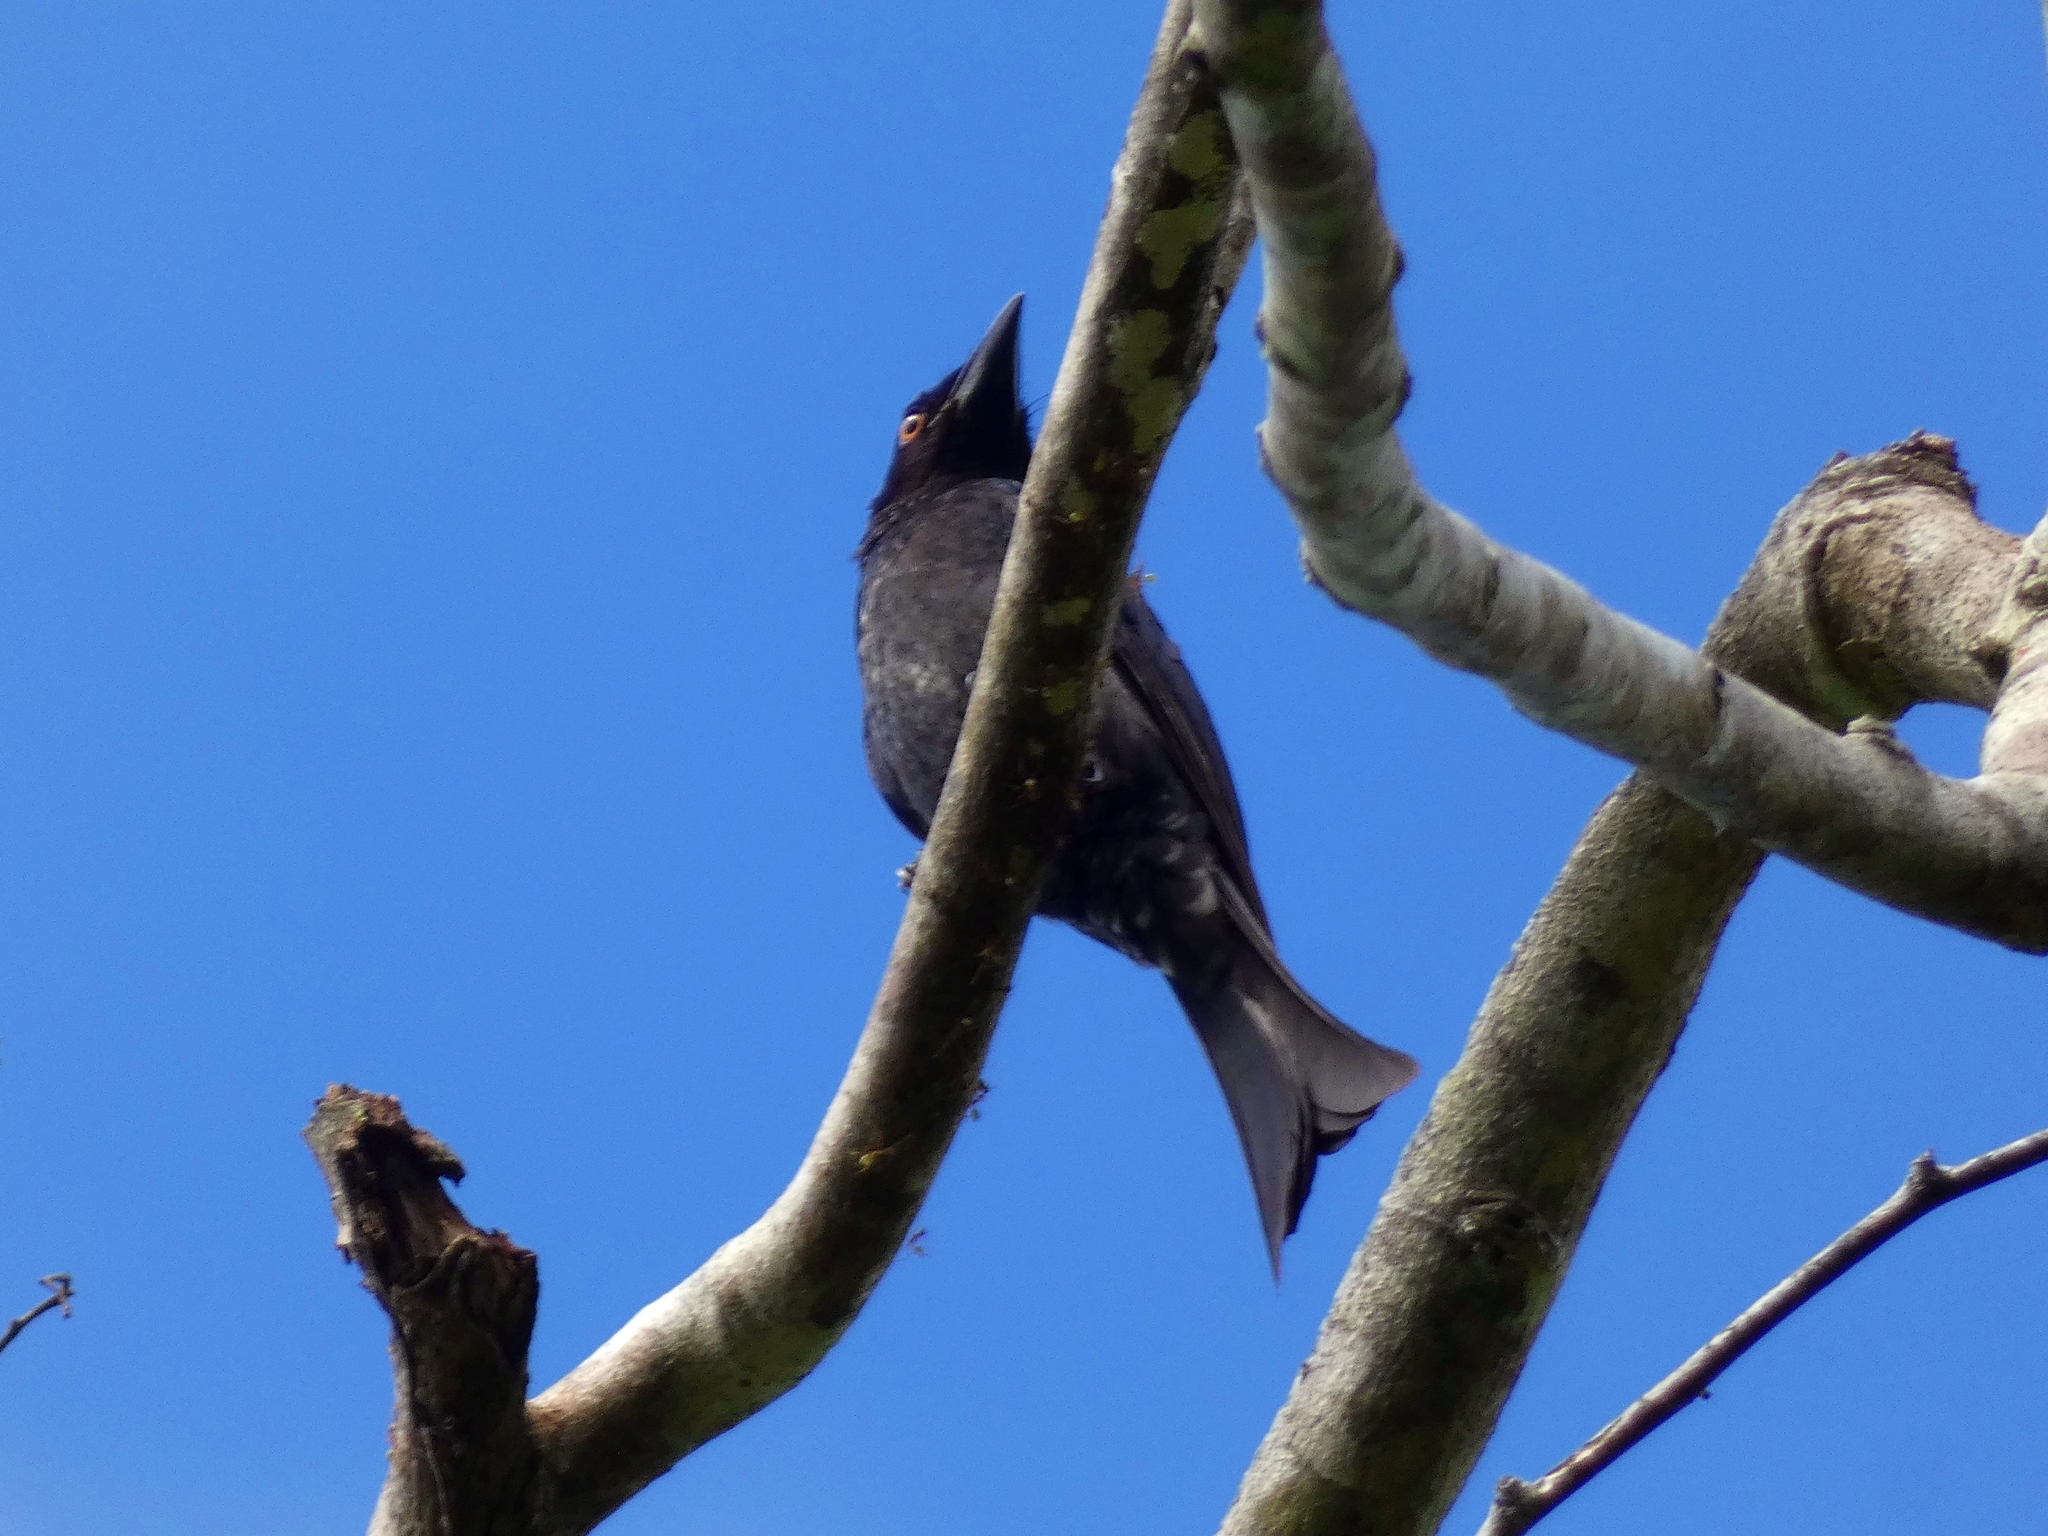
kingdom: Animalia
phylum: Chordata
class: Aves
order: Passeriformes
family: Dicruridae
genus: Dicrurus
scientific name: Dicrurus bracteatus
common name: Spangled drongo
